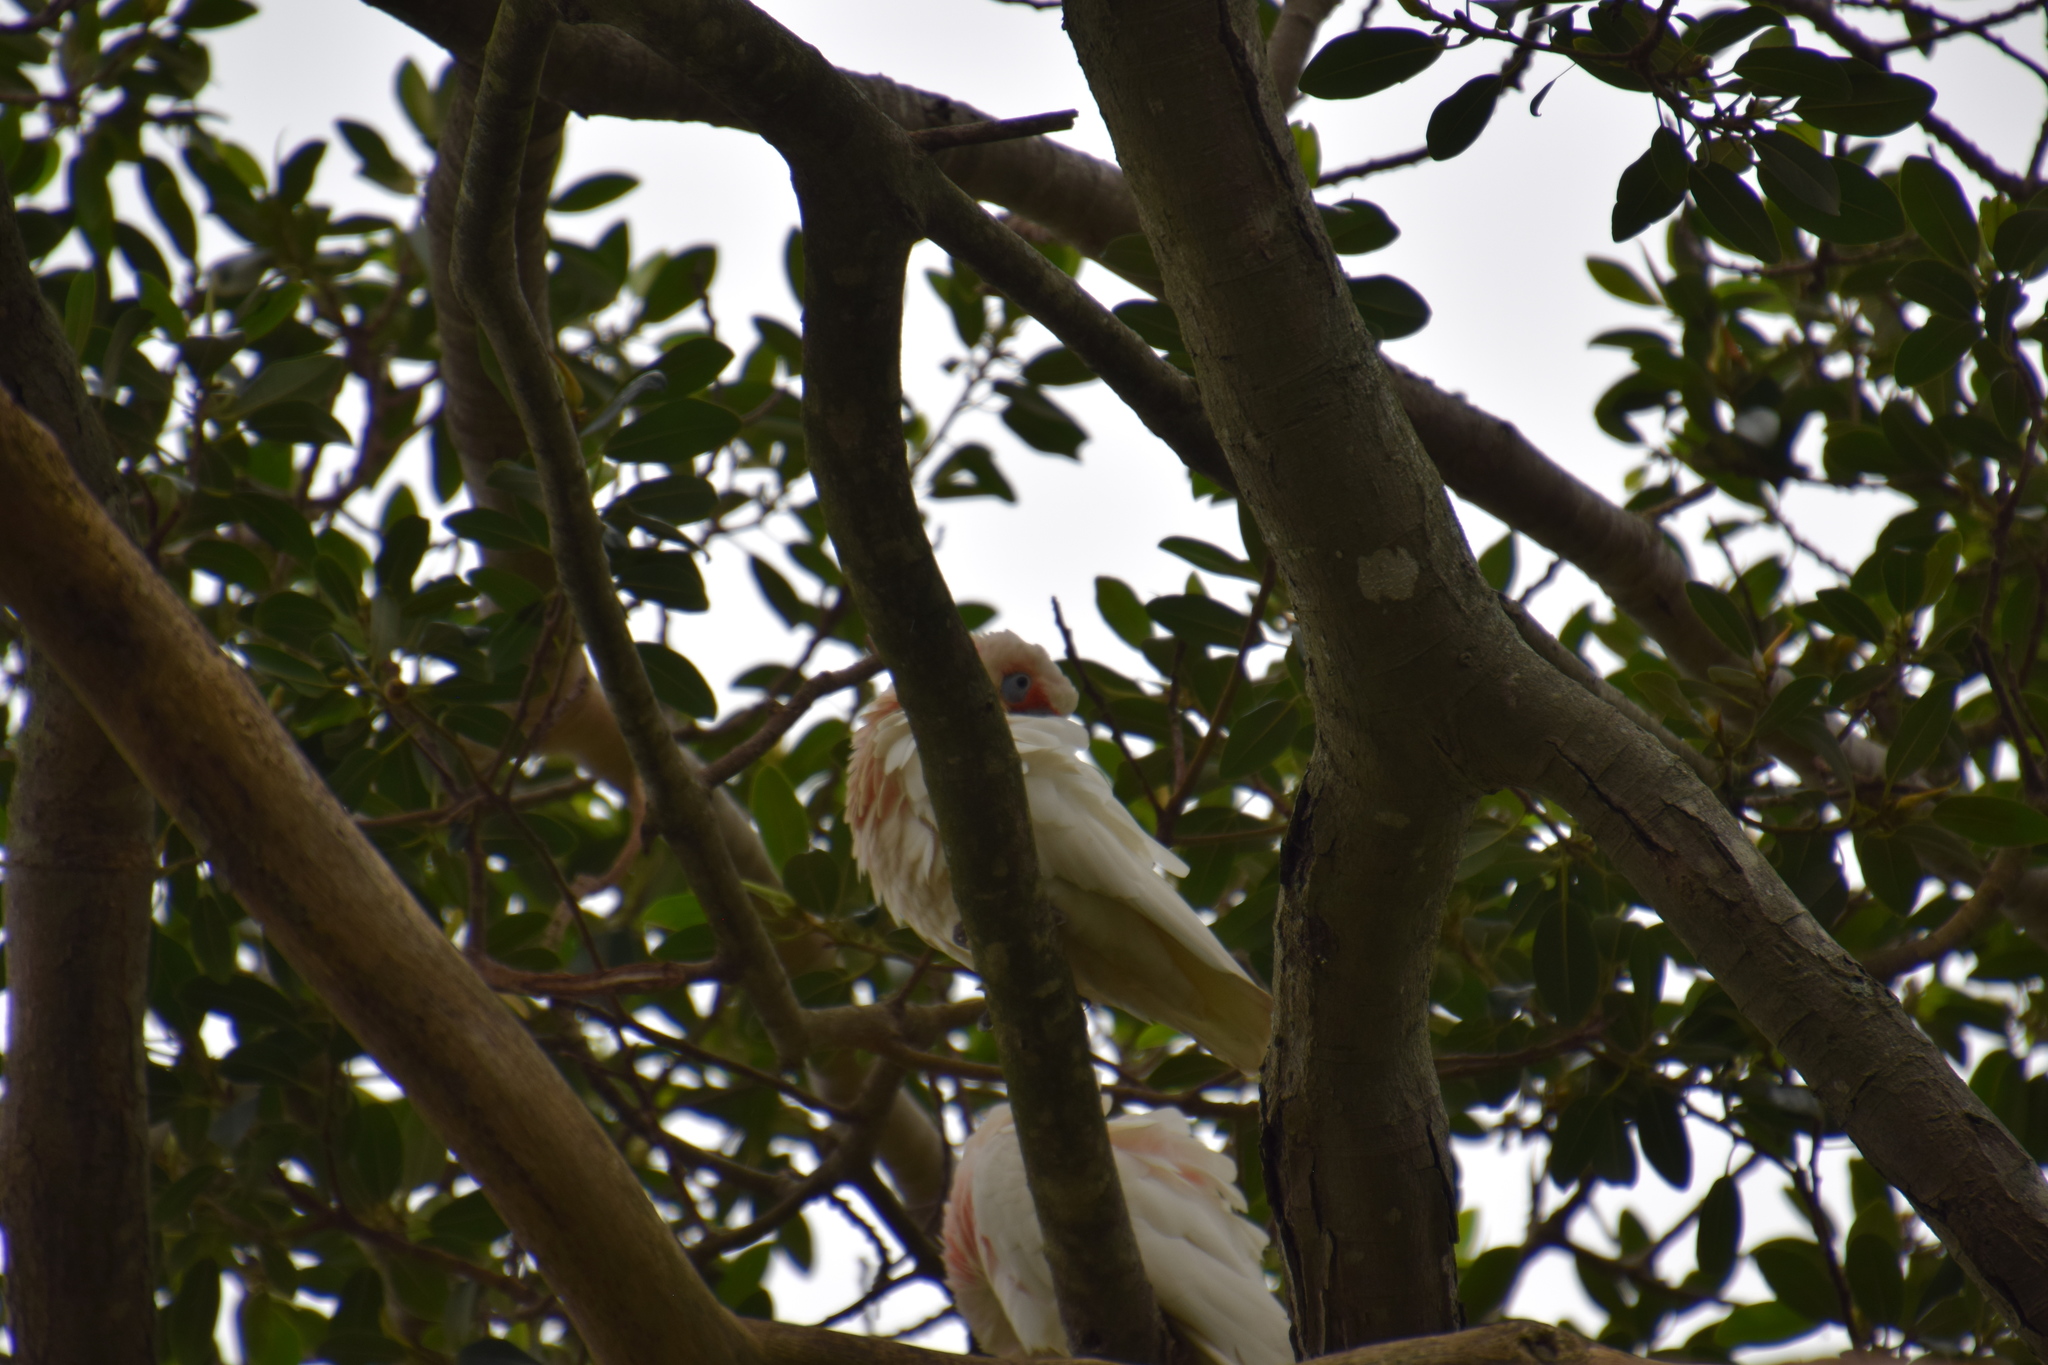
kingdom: Animalia
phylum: Chordata
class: Aves
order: Psittaciformes
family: Psittacidae
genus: Cacatua
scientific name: Cacatua tenuirostris
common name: Long-billed corella
